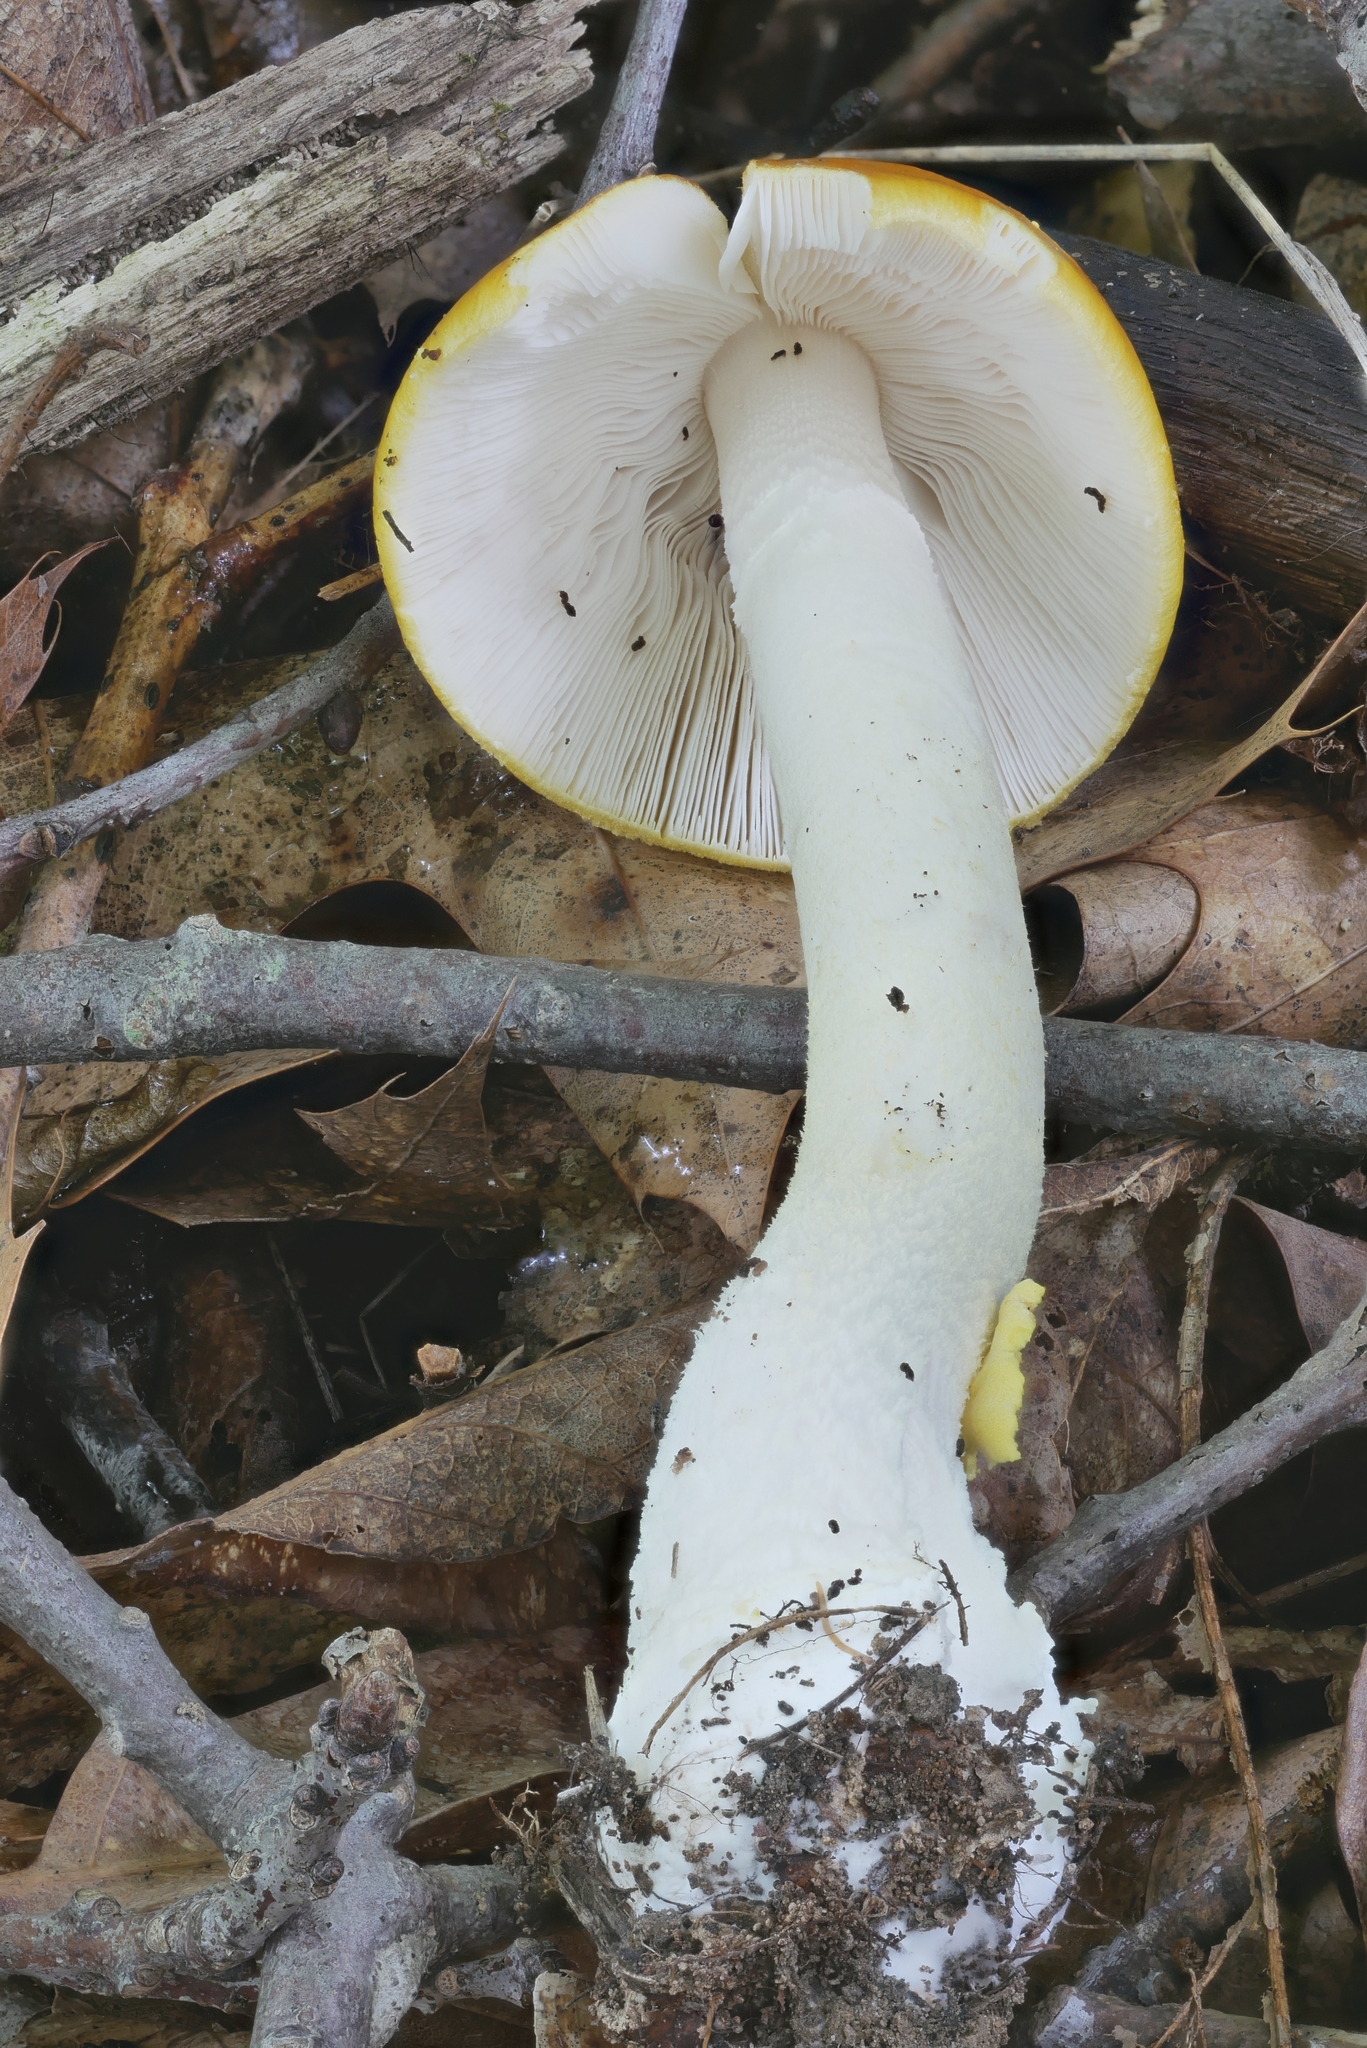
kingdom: Fungi
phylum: Basidiomycota
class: Agaricomycetes
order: Agaricales
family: Amanitaceae
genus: Amanita
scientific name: Amanita elongata
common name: Peck's yellow dust amanita
